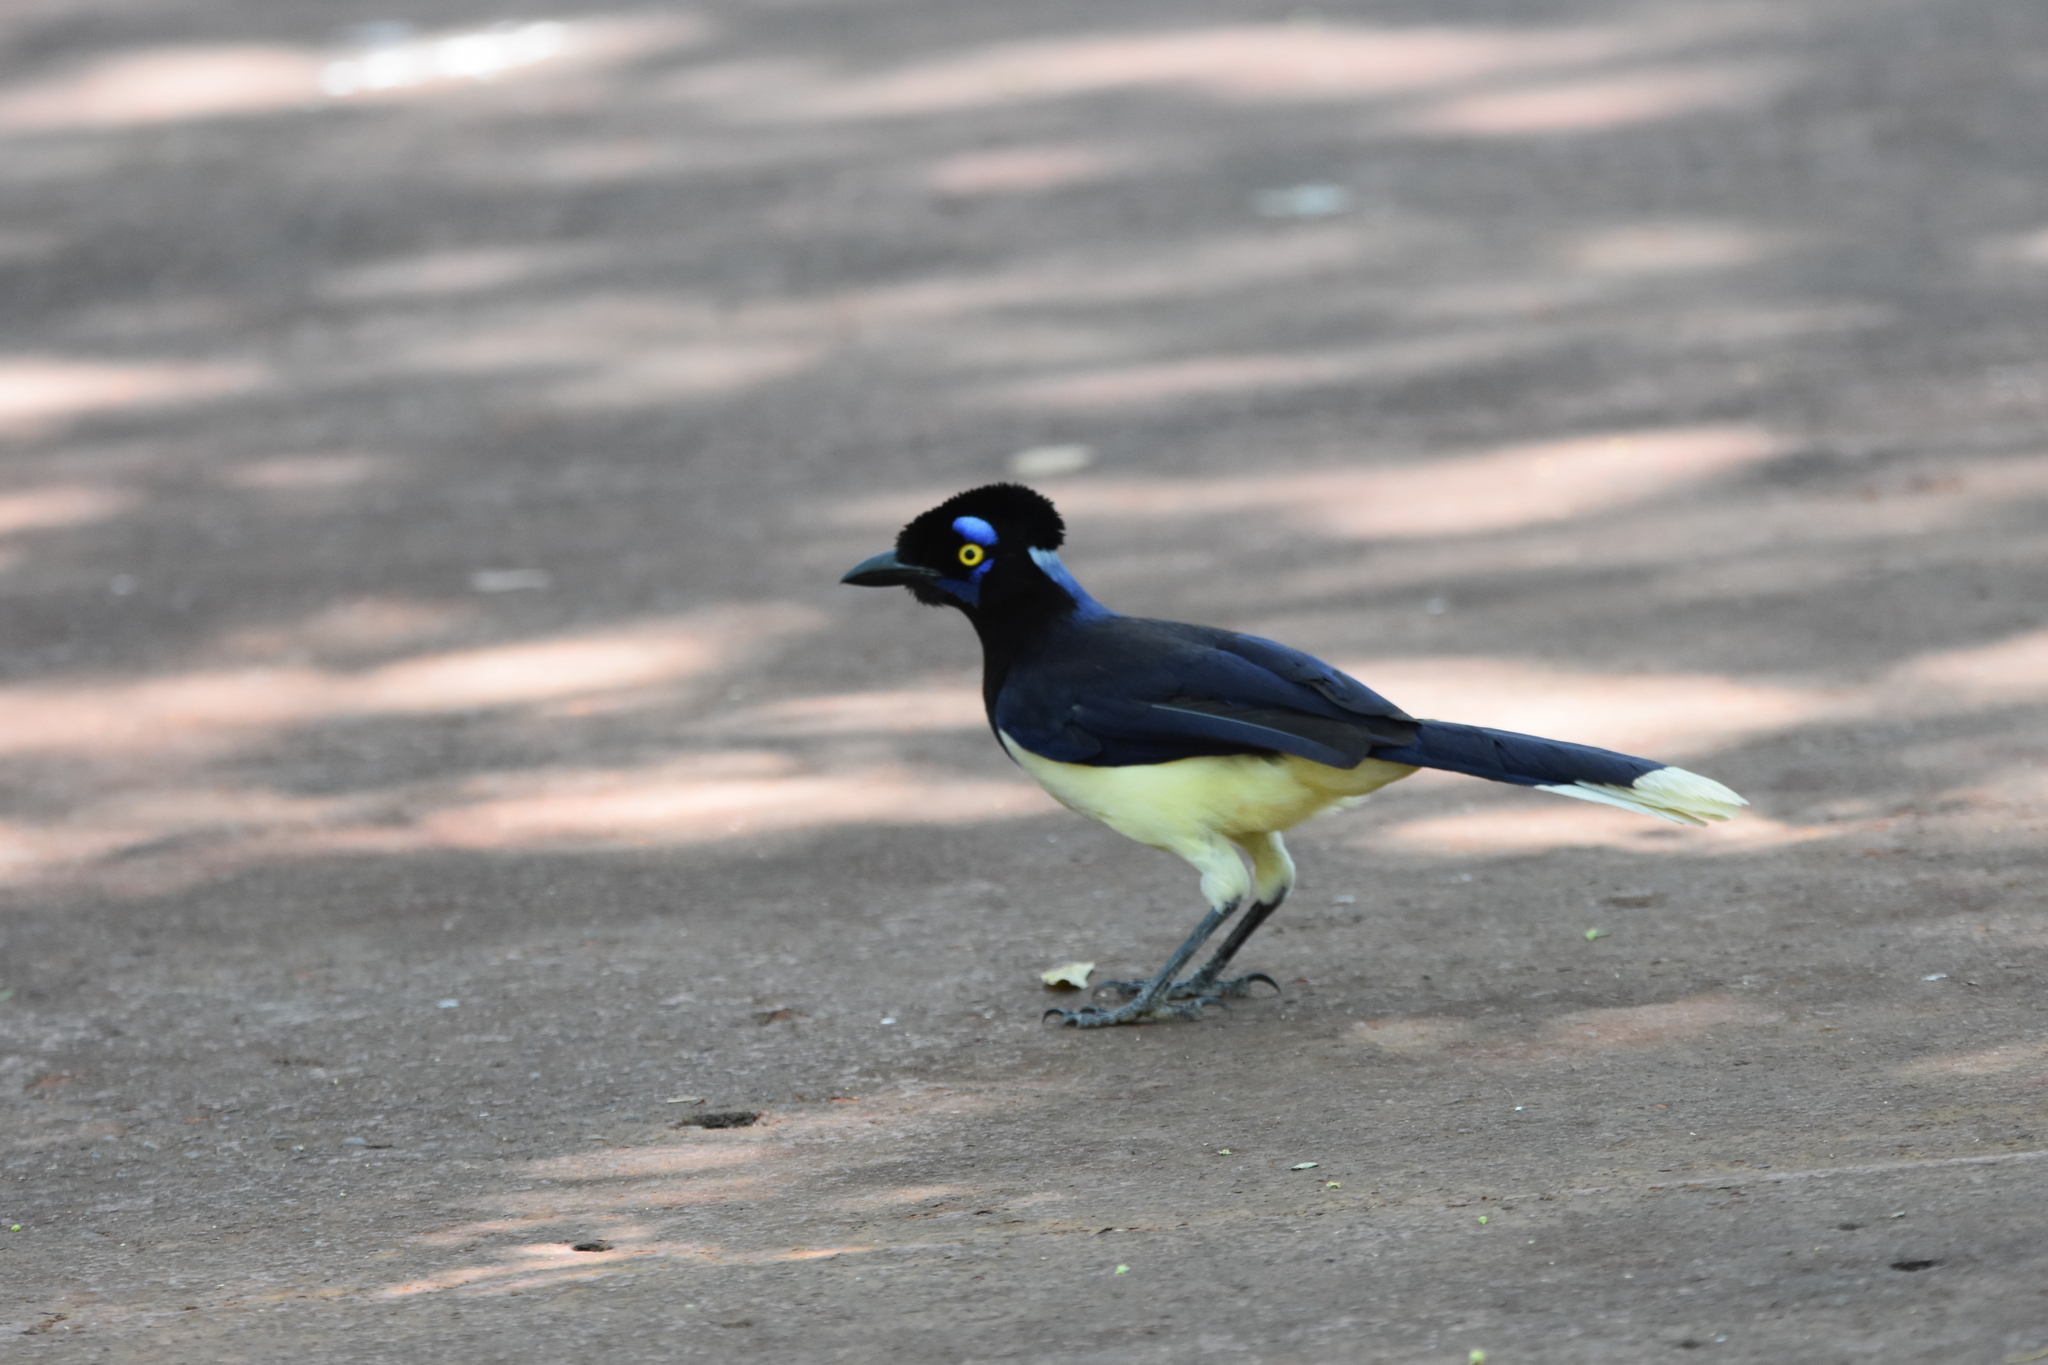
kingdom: Animalia
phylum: Chordata
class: Aves
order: Passeriformes
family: Corvidae
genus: Cyanocorax
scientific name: Cyanocorax chrysops
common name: Plush-crested jay
